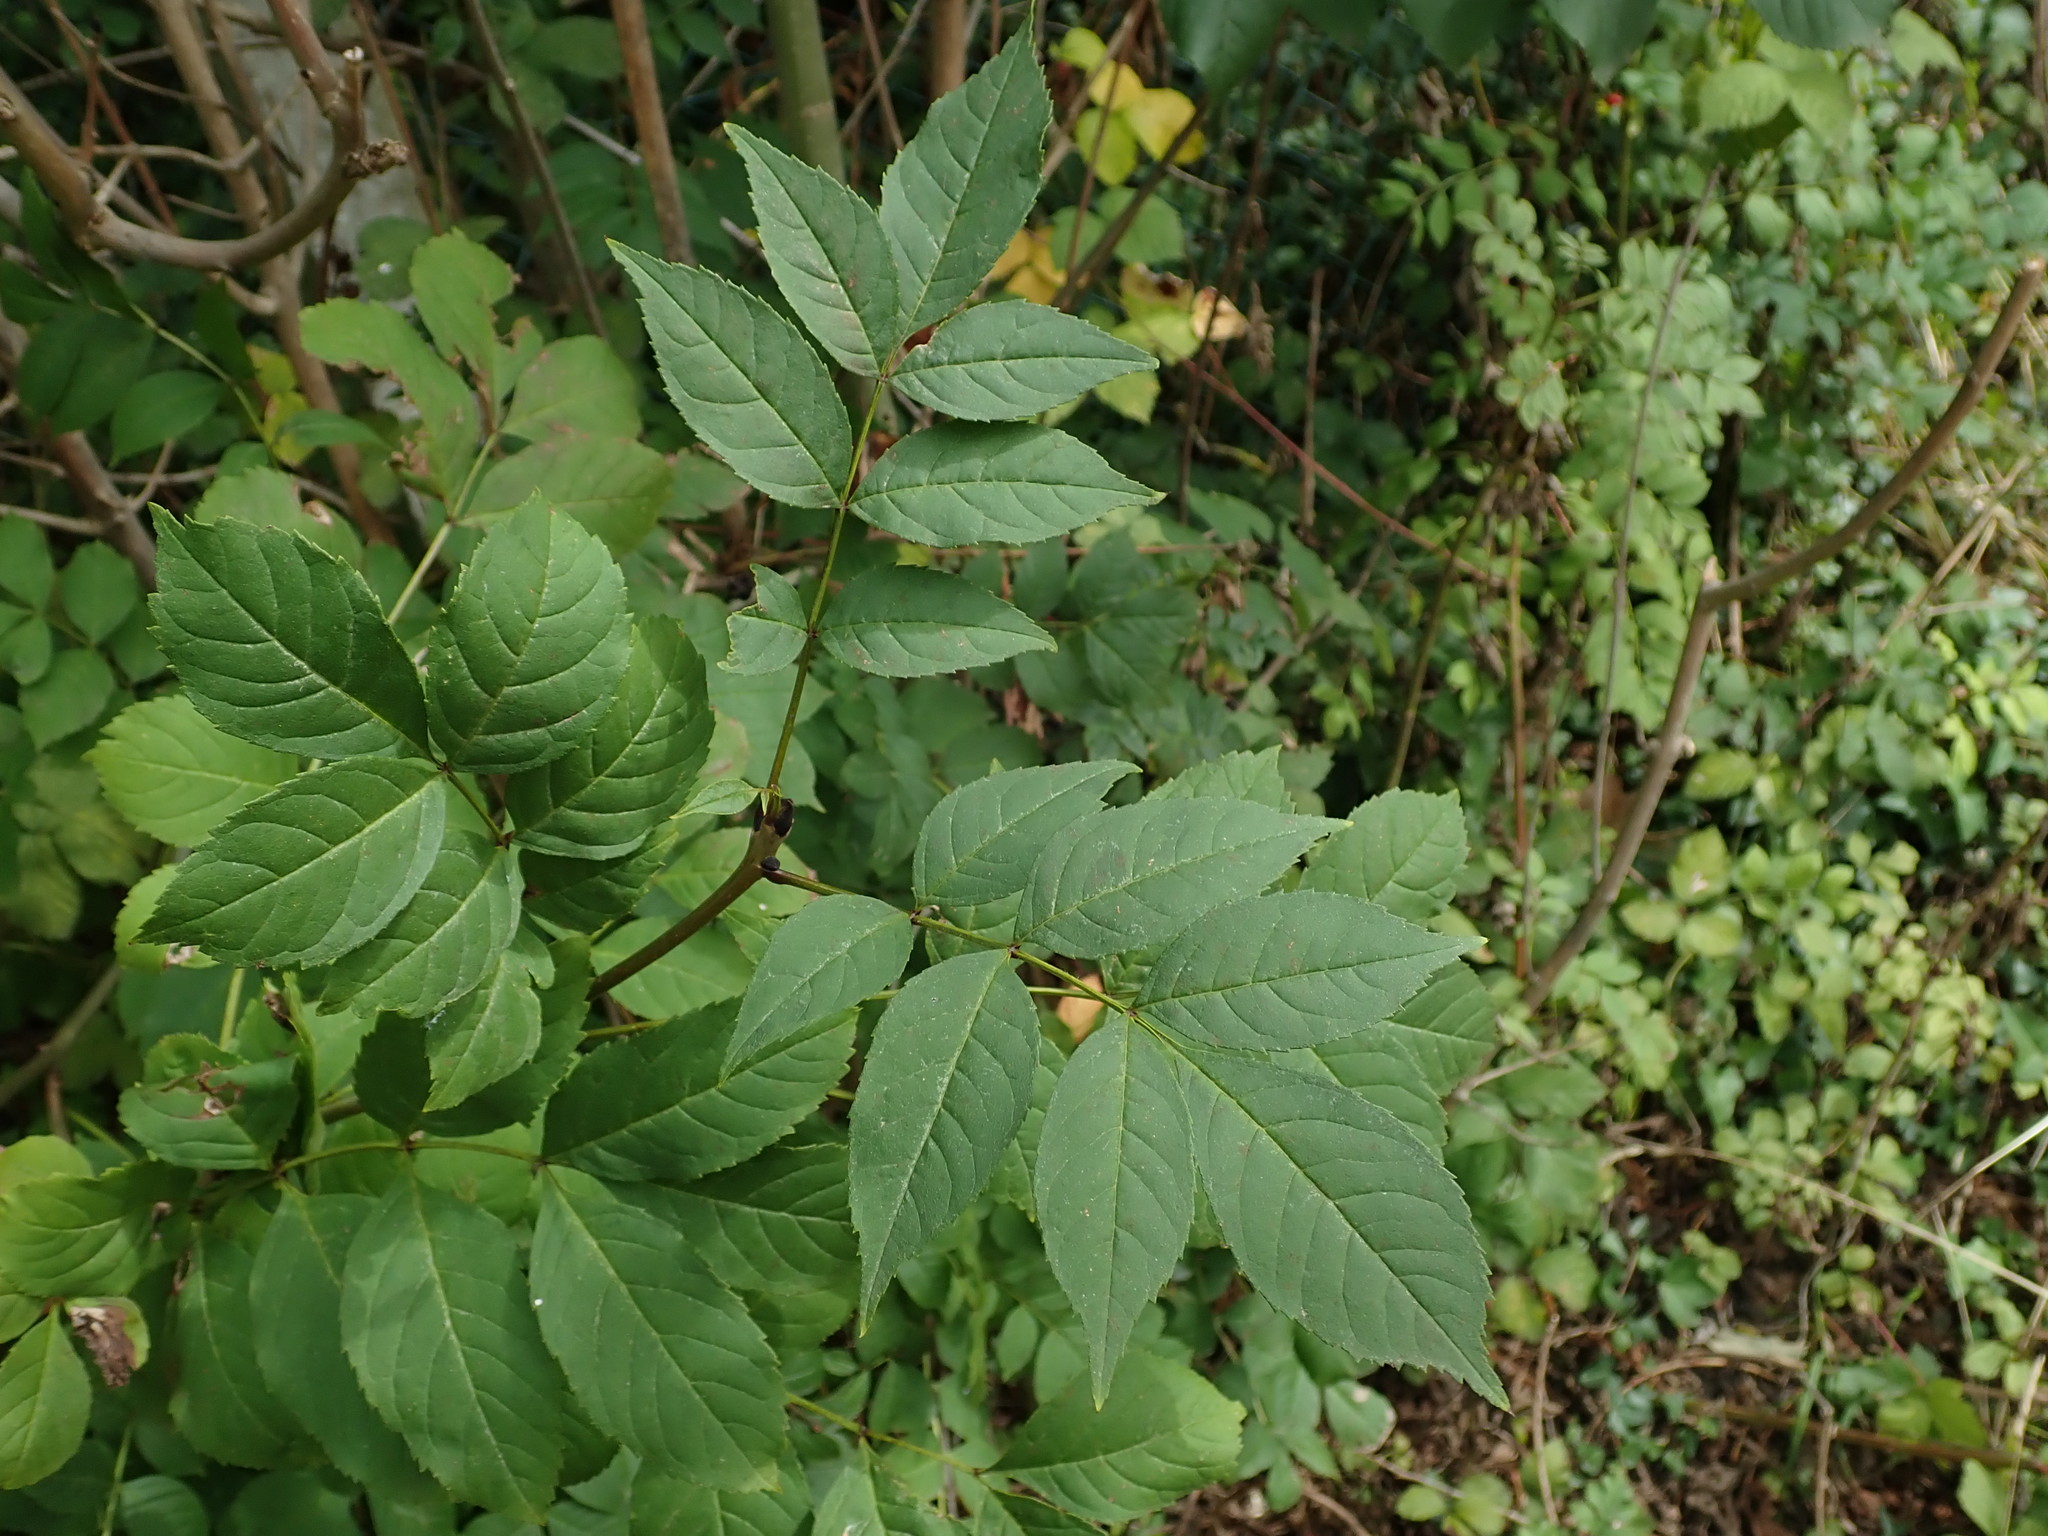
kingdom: Plantae
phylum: Tracheophyta
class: Magnoliopsida
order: Lamiales
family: Oleaceae
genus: Fraxinus
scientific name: Fraxinus excelsior
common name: European ash
